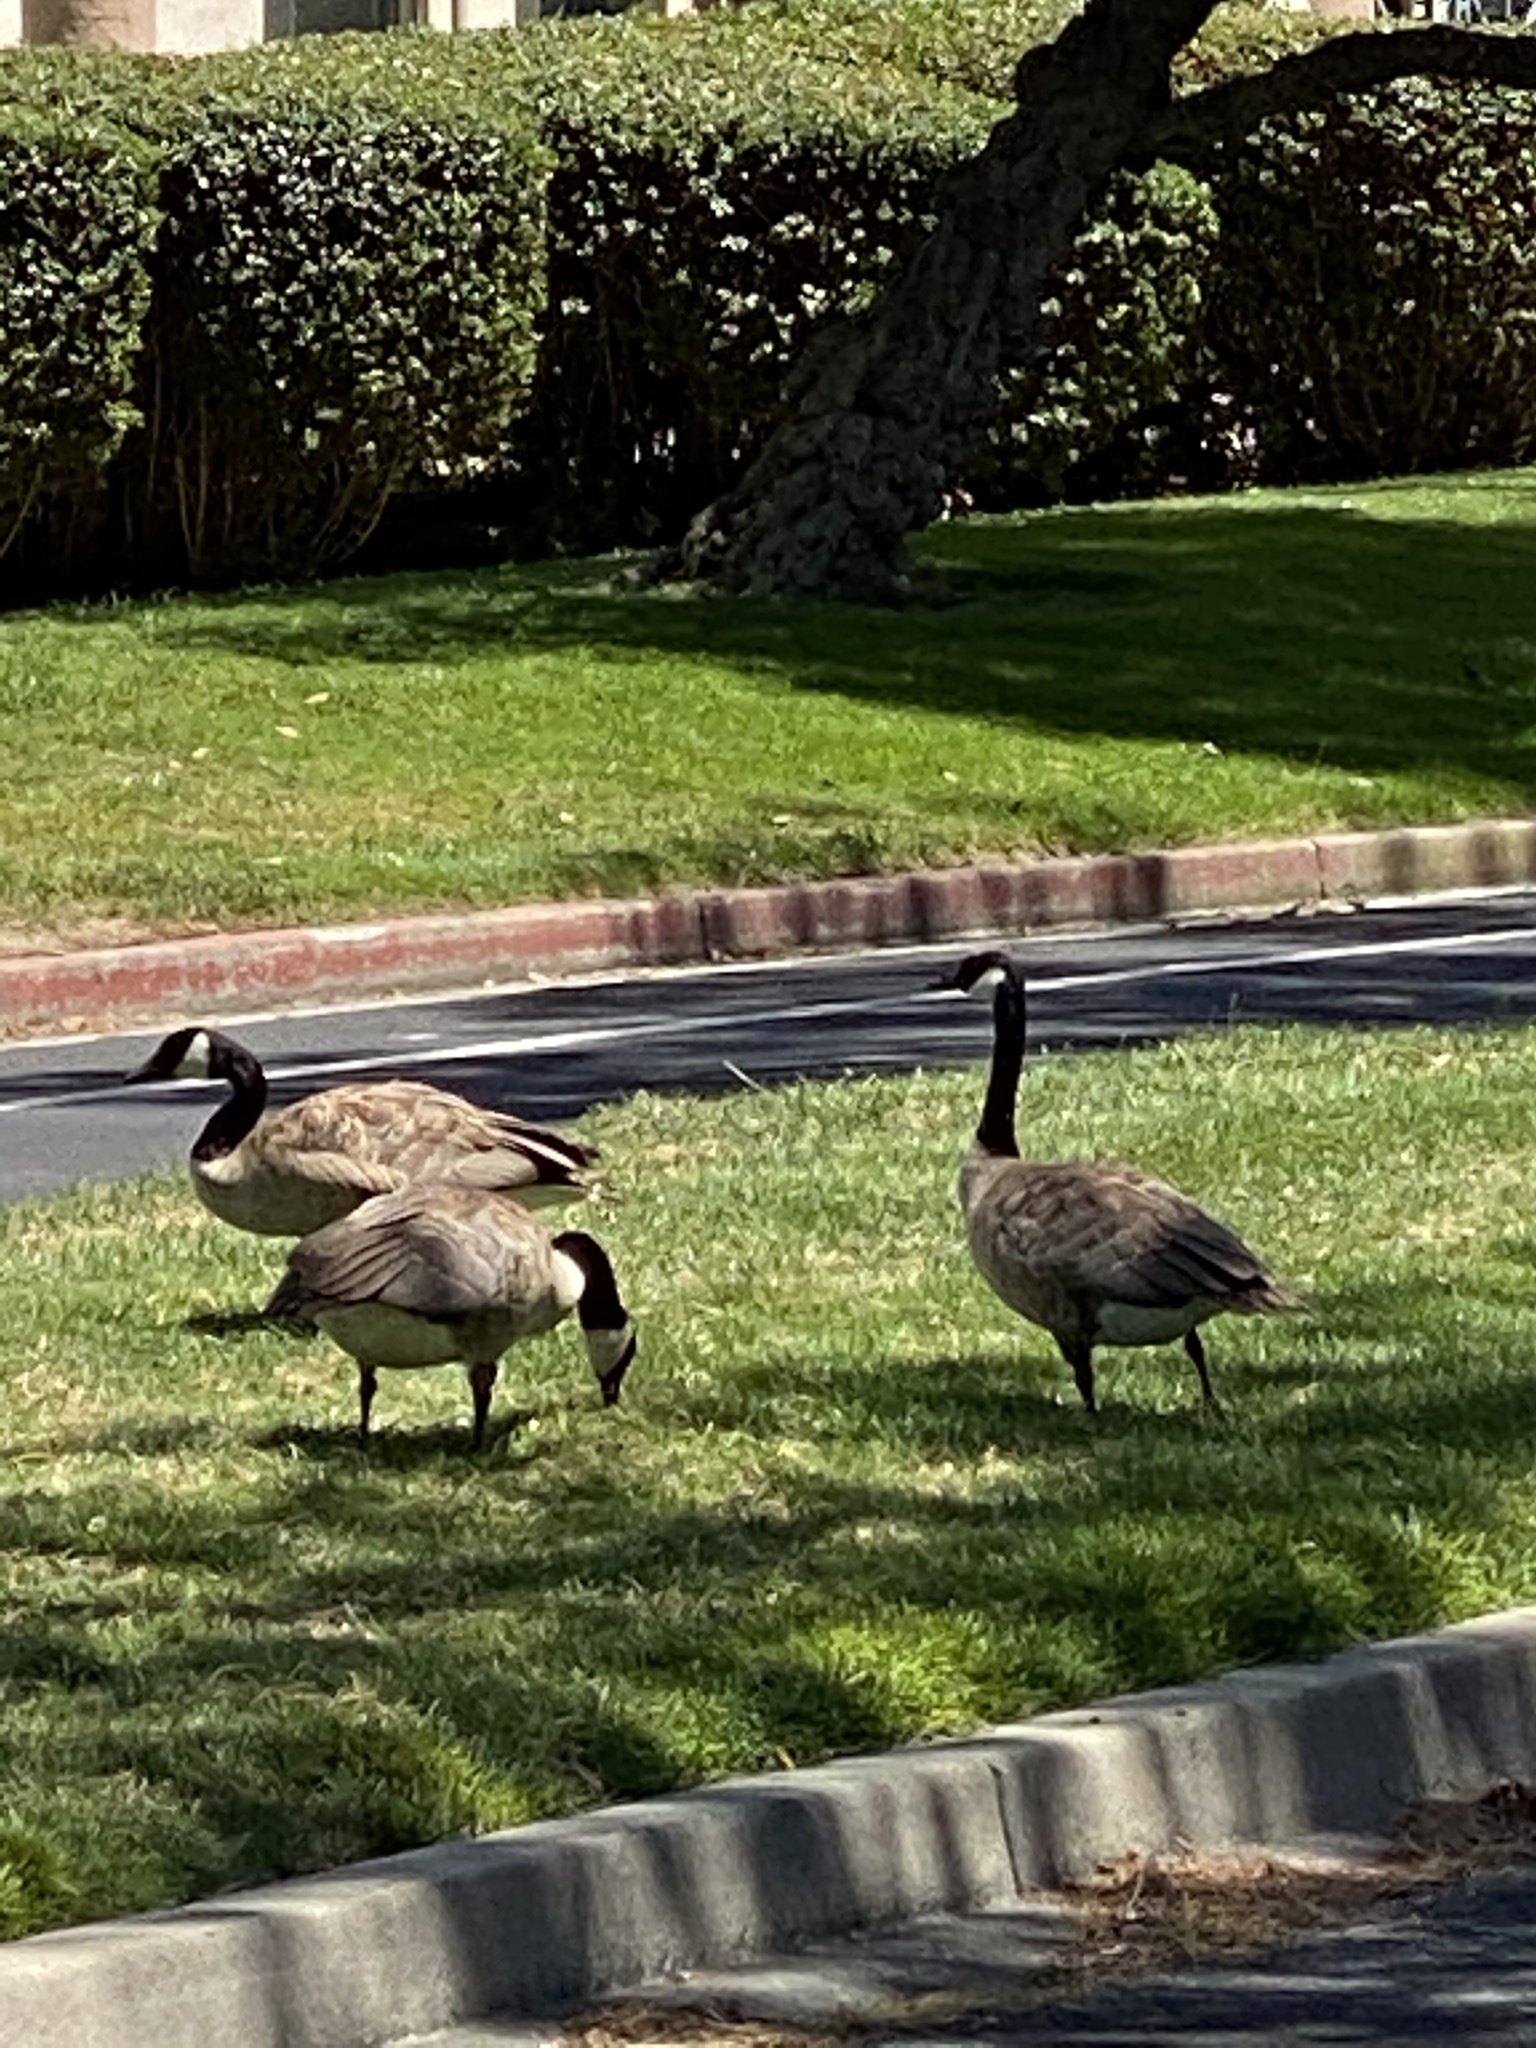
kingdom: Animalia
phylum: Chordata
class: Aves
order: Anseriformes
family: Anatidae
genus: Branta
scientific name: Branta canadensis
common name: Canada goose
